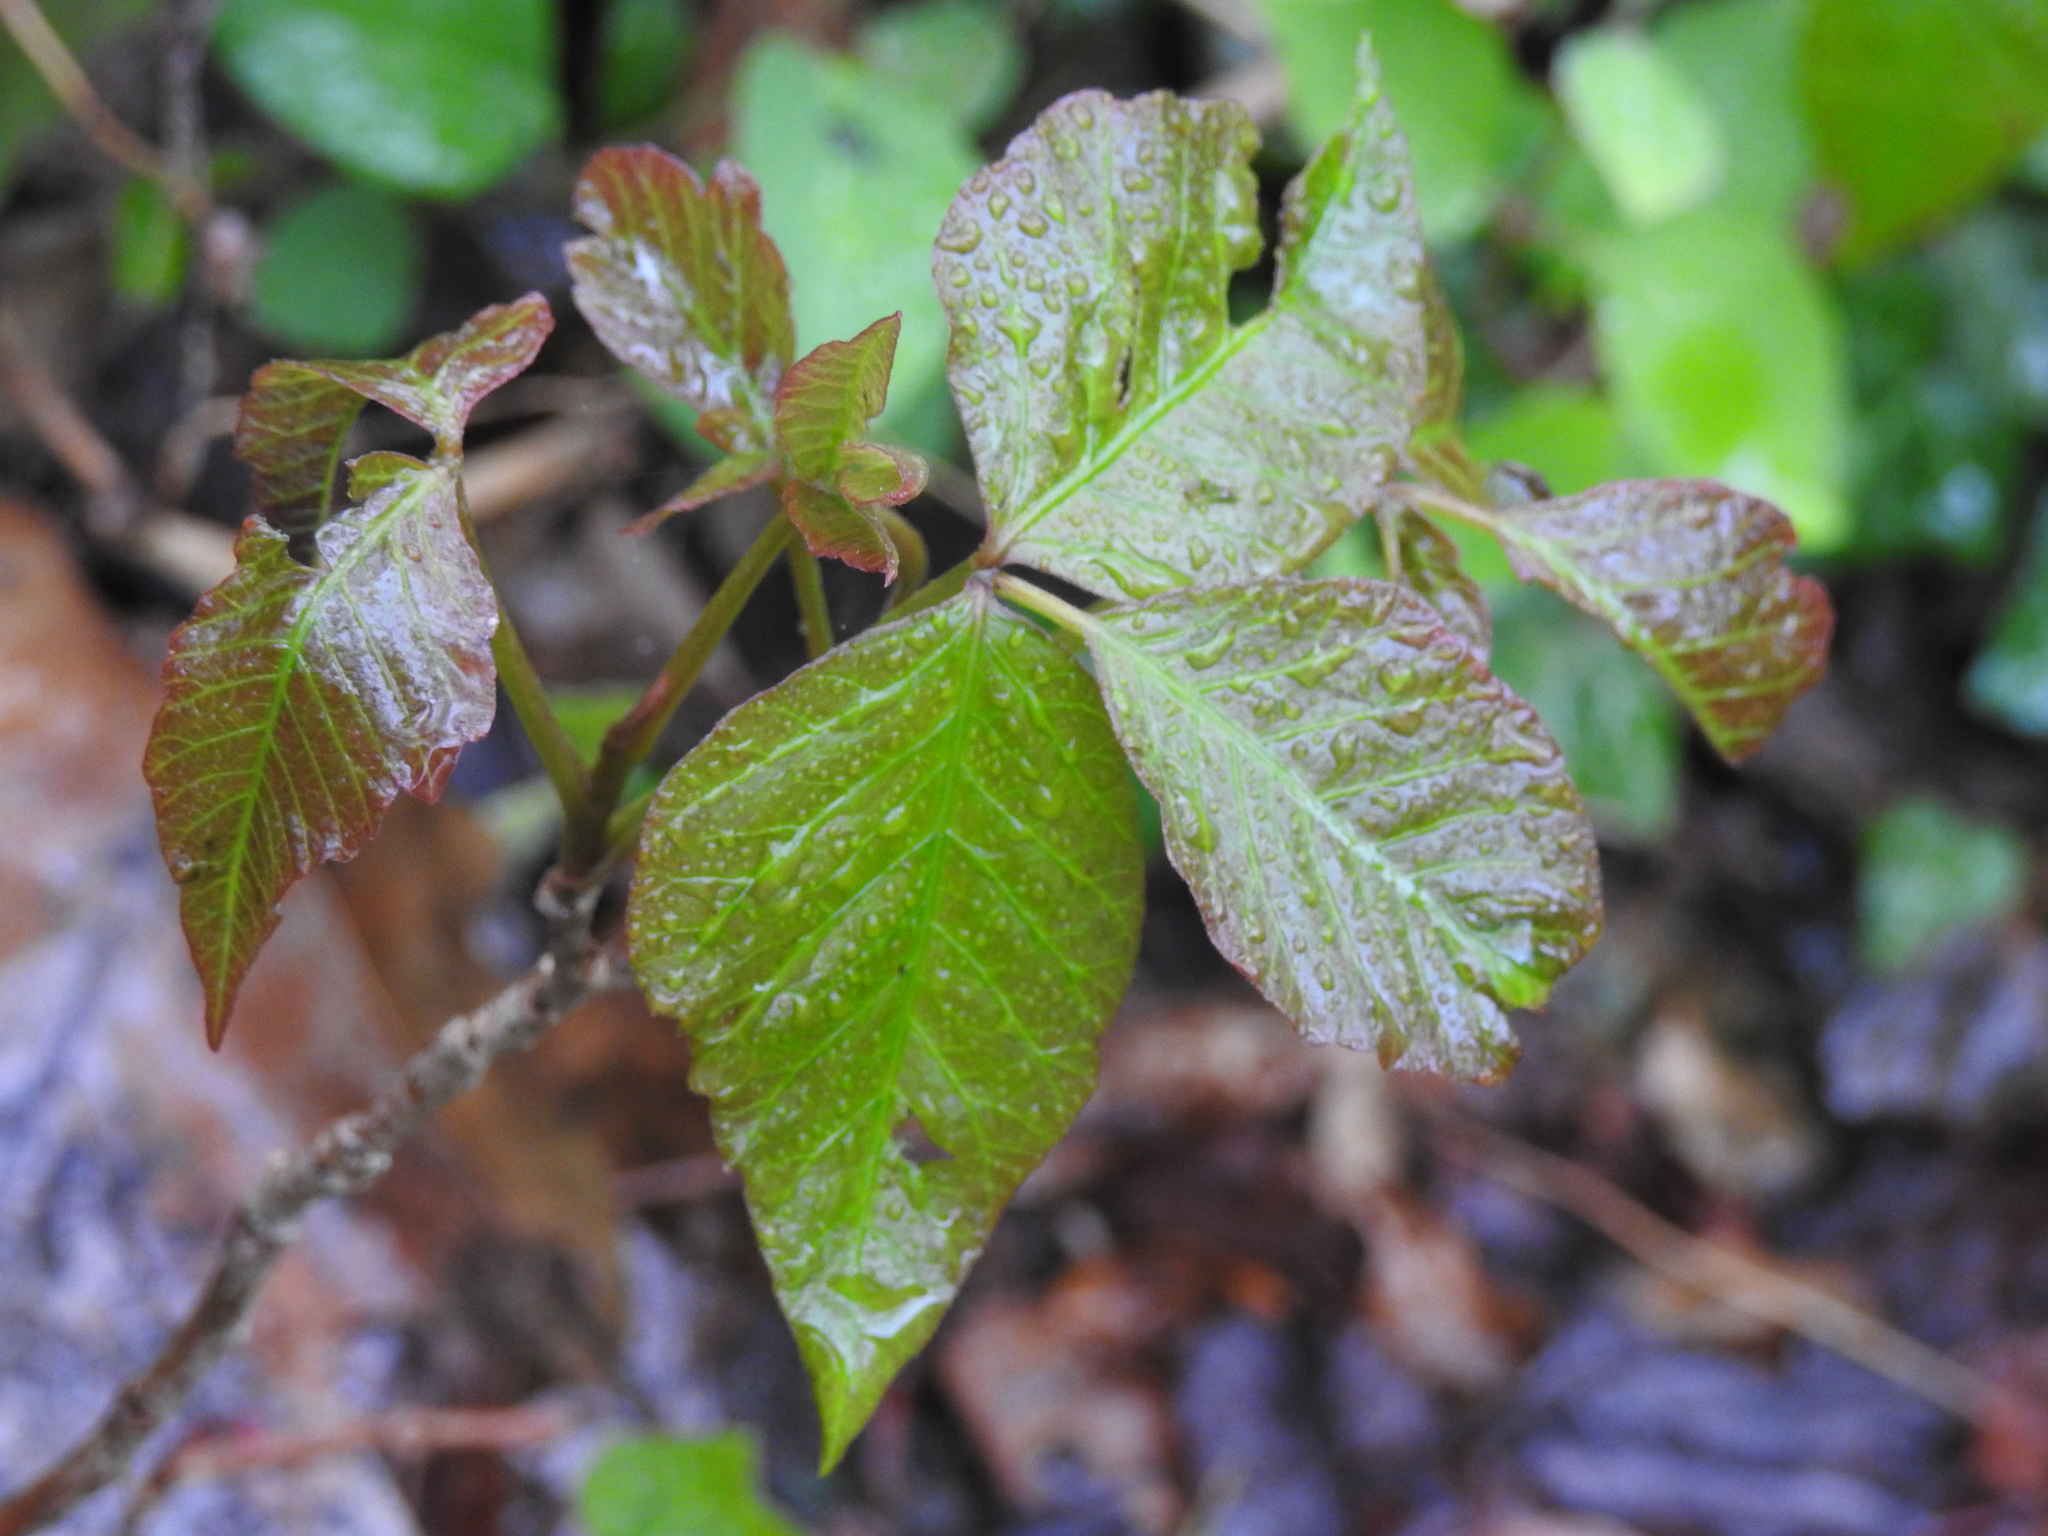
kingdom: Plantae
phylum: Tracheophyta
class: Magnoliopsida
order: Sapindales
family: Anacardiaceae
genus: Toxicodendron
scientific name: Toxicodendron radicans
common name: Poison ivy
